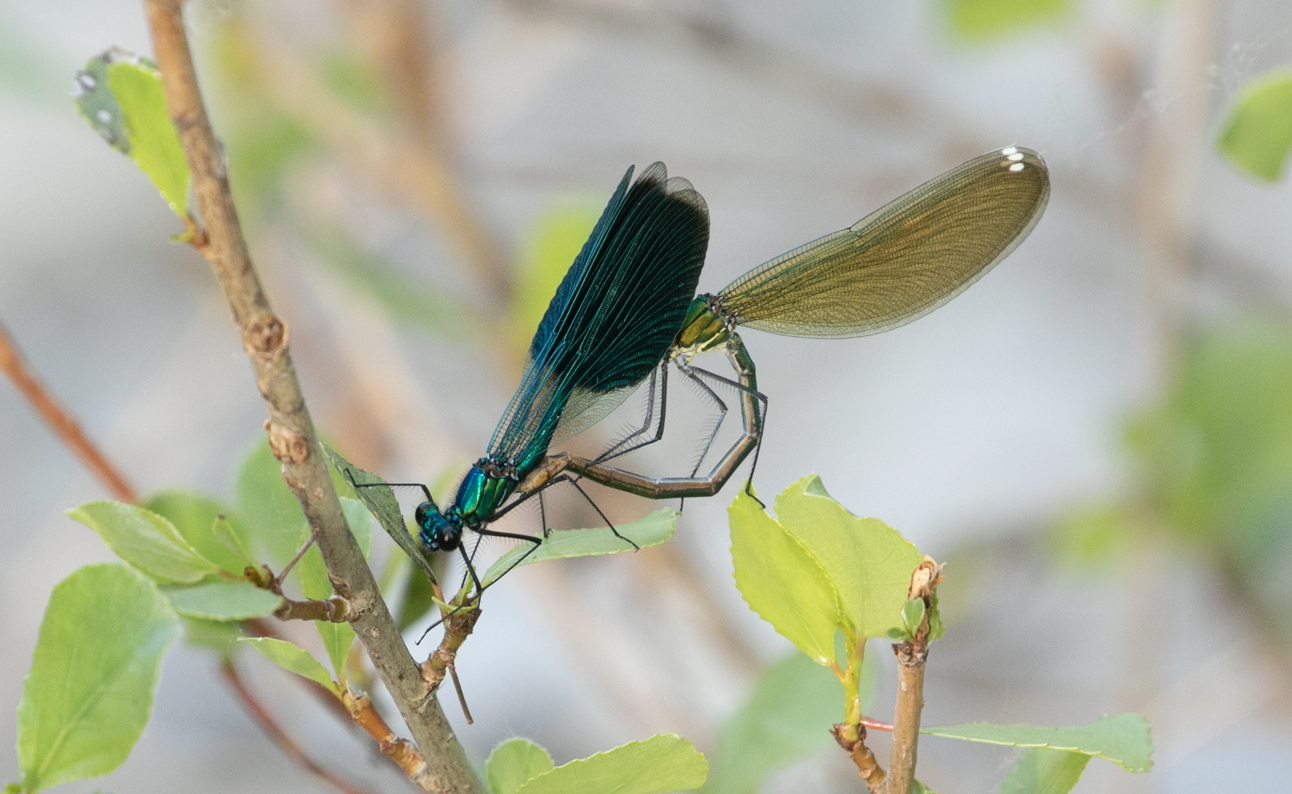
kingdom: Animalia
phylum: Arthropoda
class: Insecta
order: Odonata
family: Calopterygidae
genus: Calopteryx
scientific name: Calopteryx splendens
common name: Banded demoiselle
